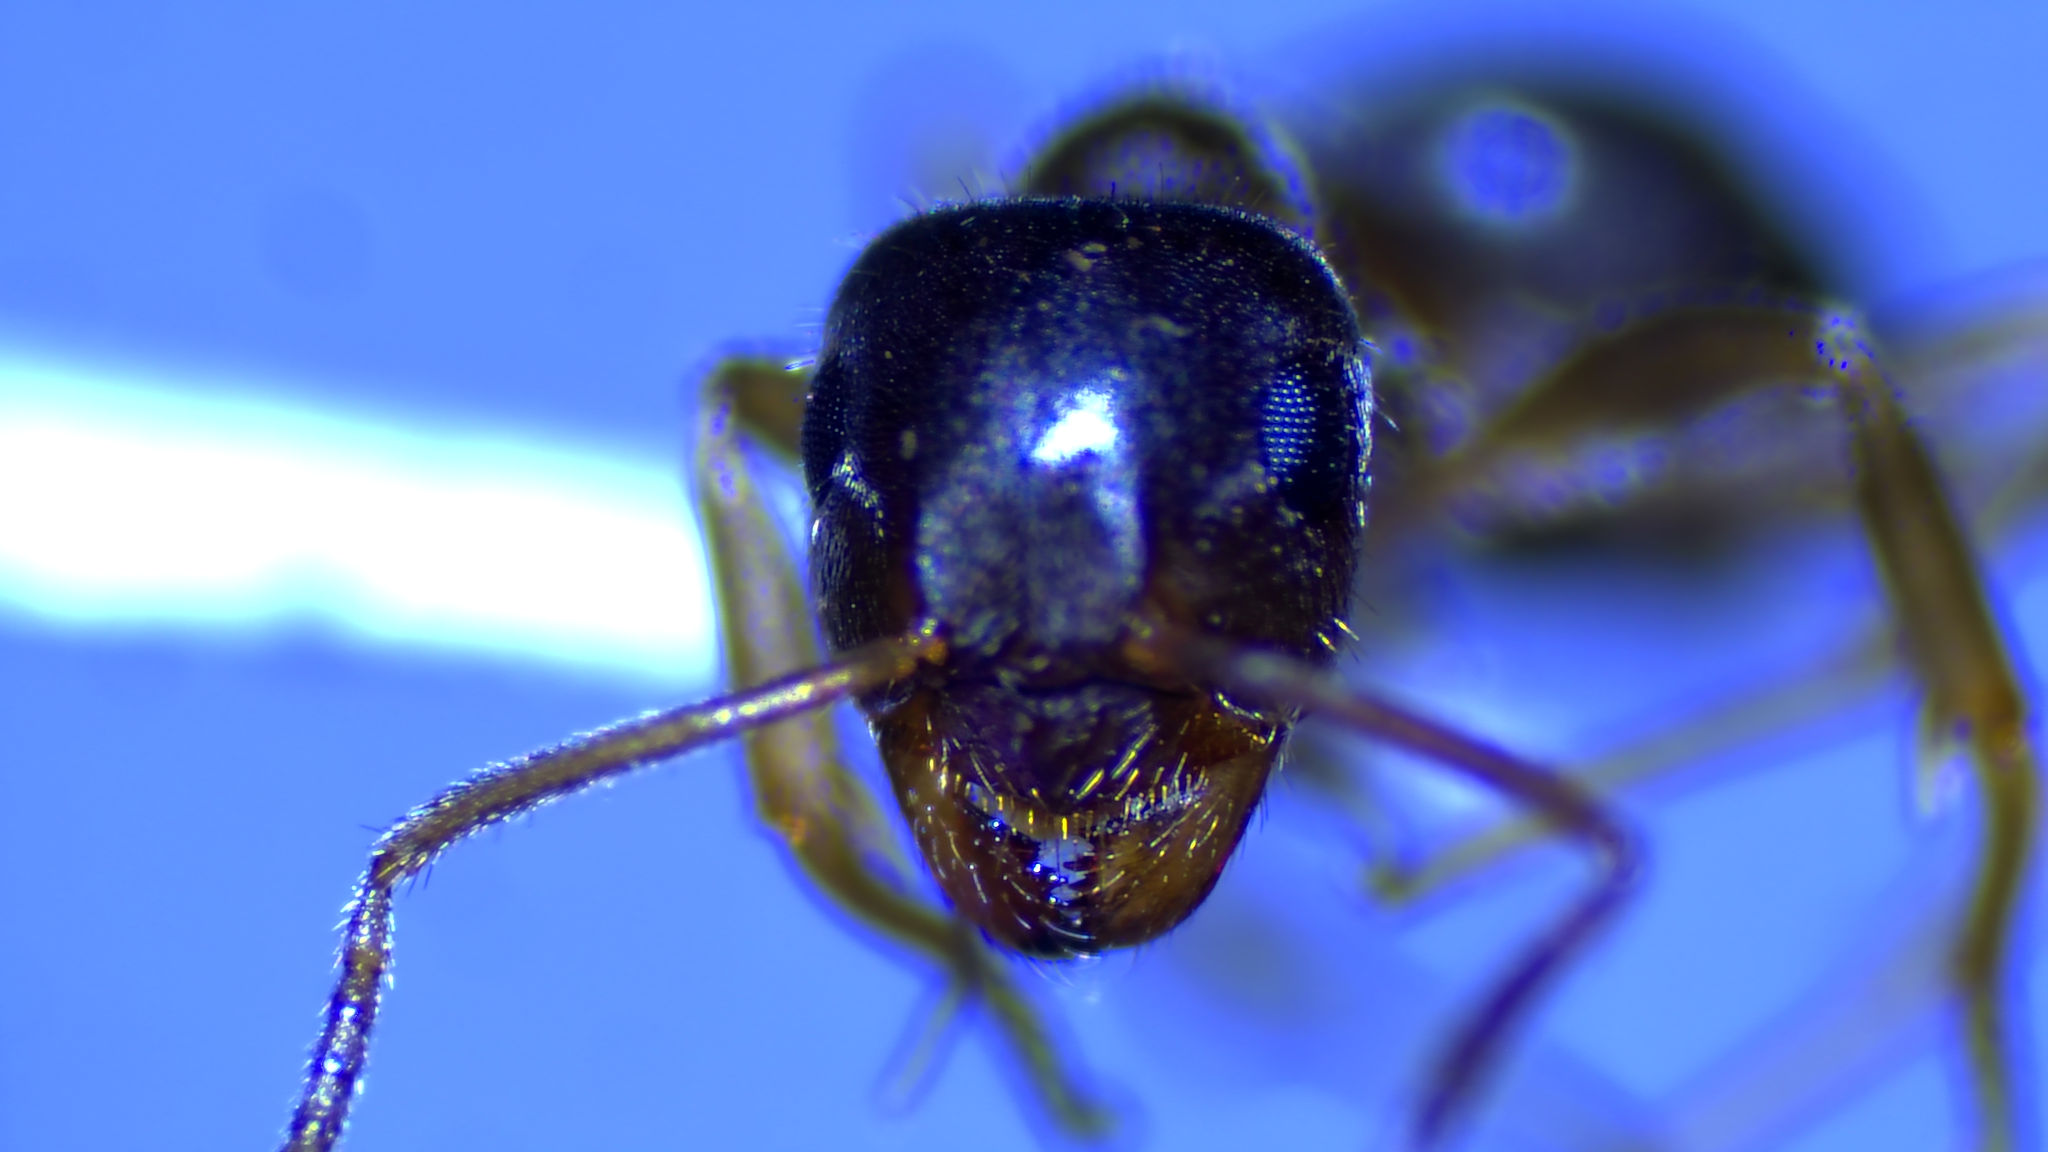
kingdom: Animalia
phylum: Arthropoda
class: Insecta
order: Hymenoptera
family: Formicidae
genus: Lasius
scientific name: Lasius neoniger
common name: Turfgrass ant
